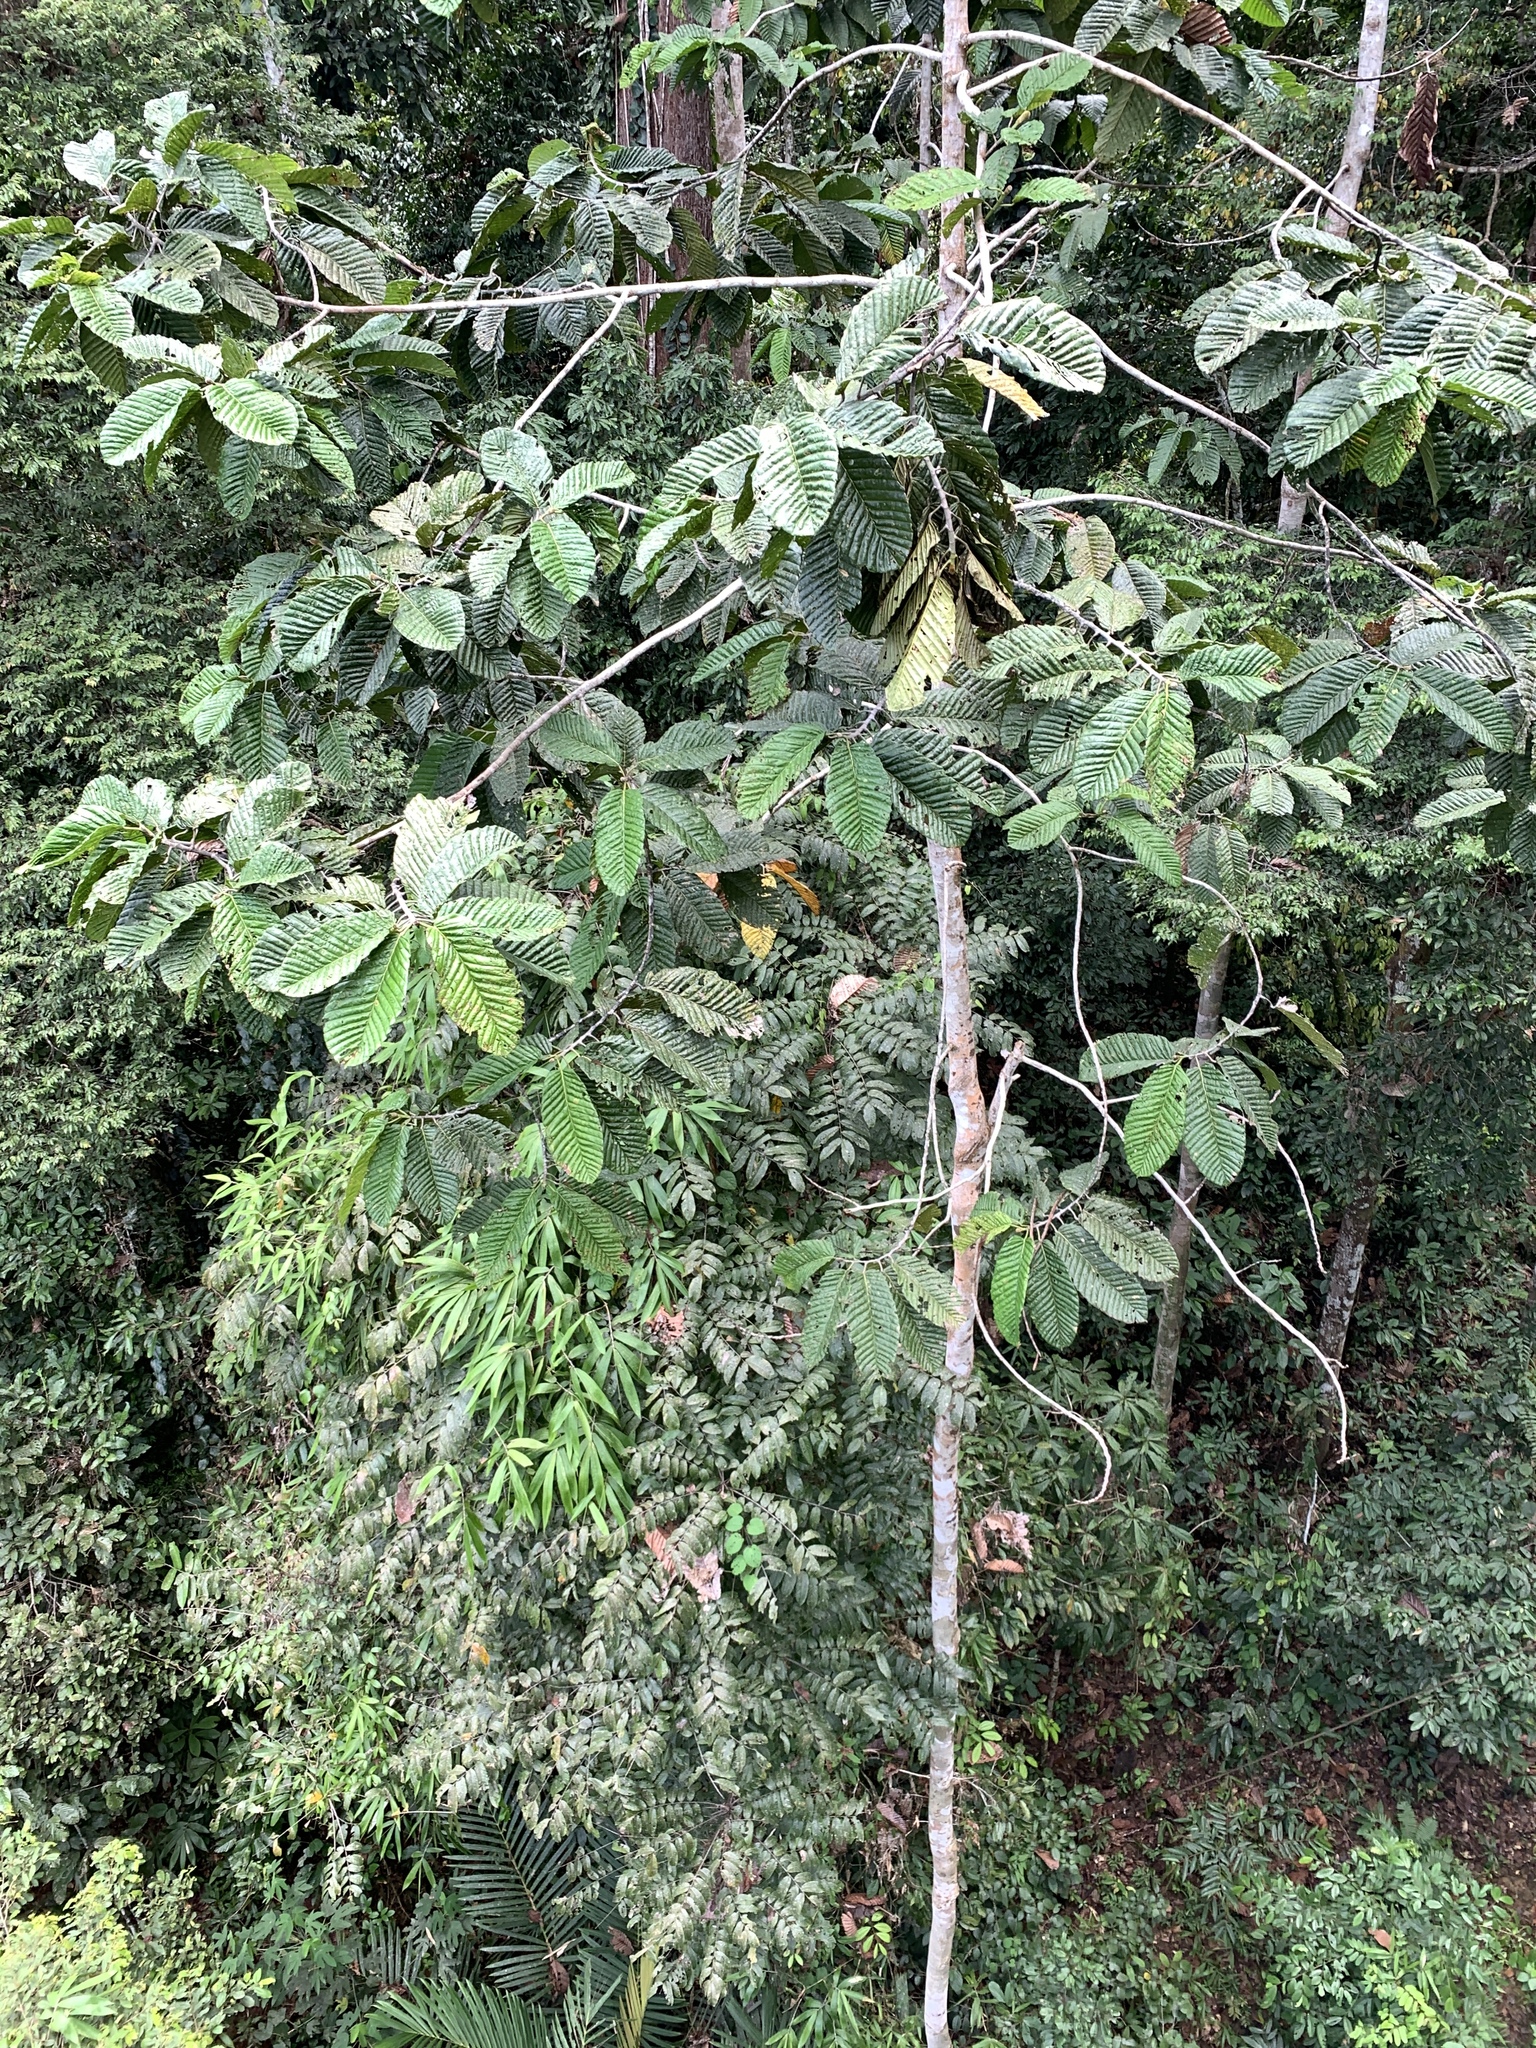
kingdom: Plantae
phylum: Tracheophyta
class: Magnoliopsida
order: Malvales
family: Dipterocarpaceae
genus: Dipterocarpus
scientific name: Dipterocarpus applanatus
